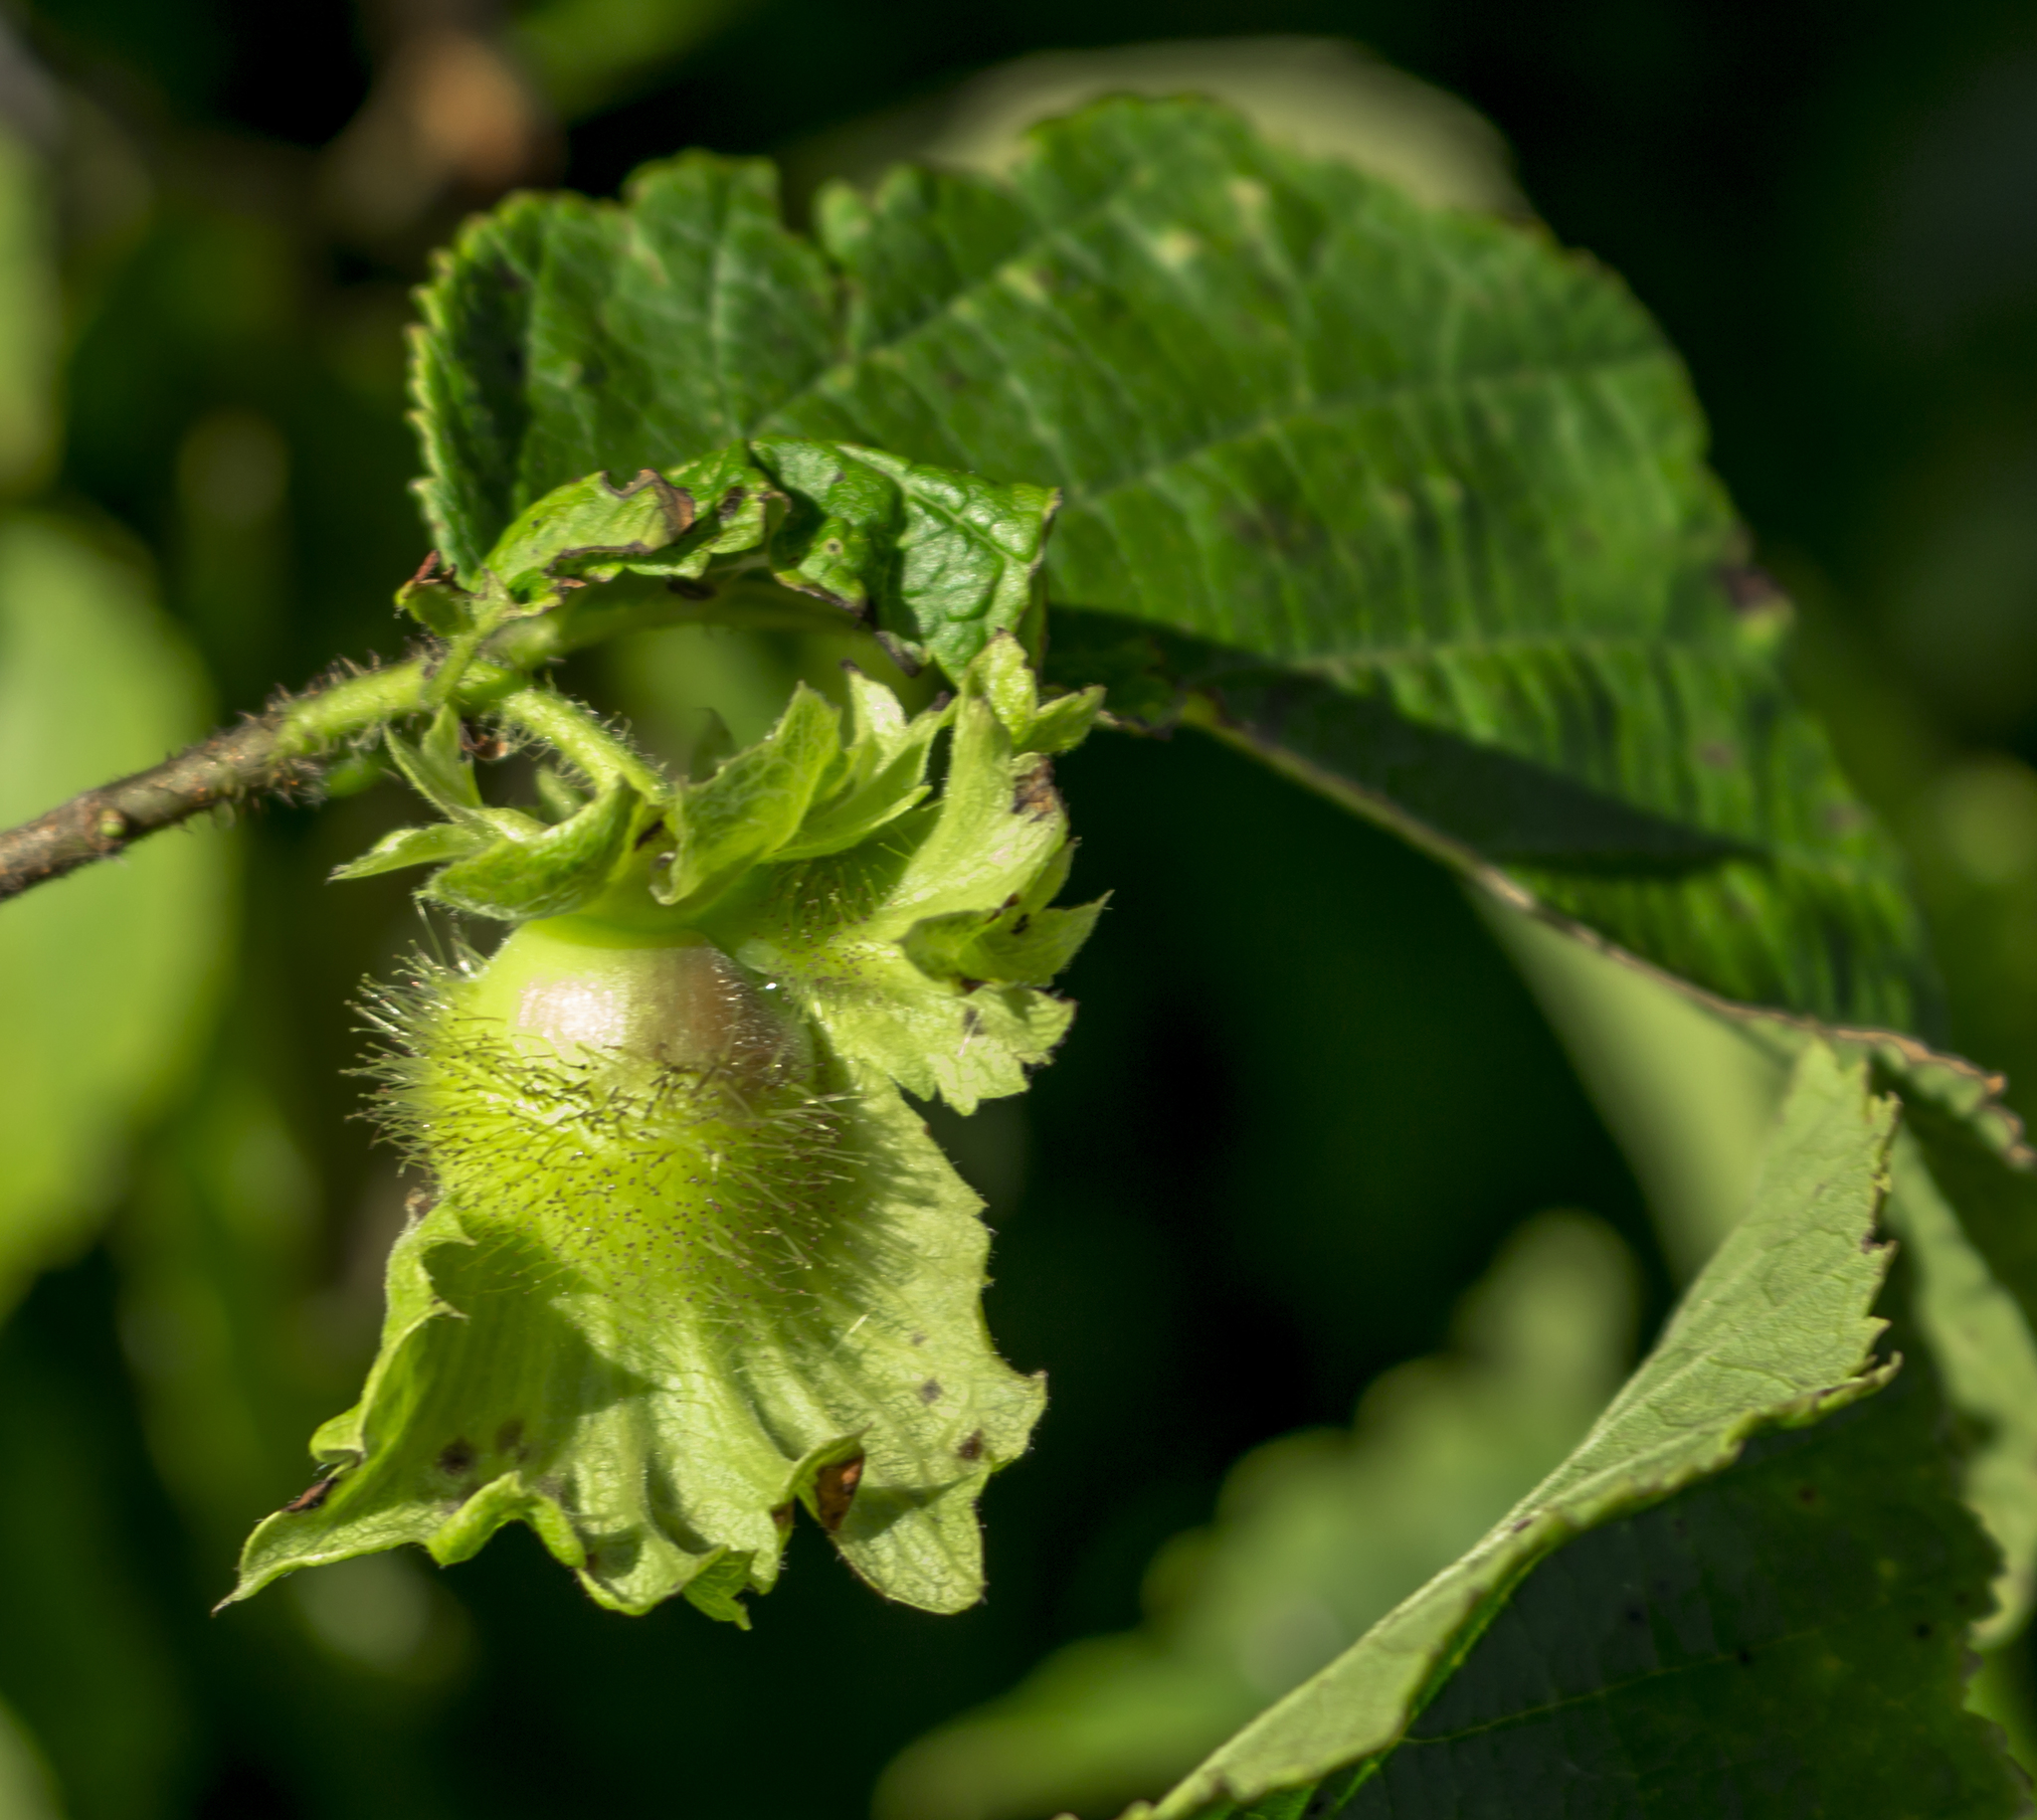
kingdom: Plantae
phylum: Tracheophyta
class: Magnoliopsida
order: Fagales
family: Betulaceae
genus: Corylus
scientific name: Corylus americana
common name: American hazel
